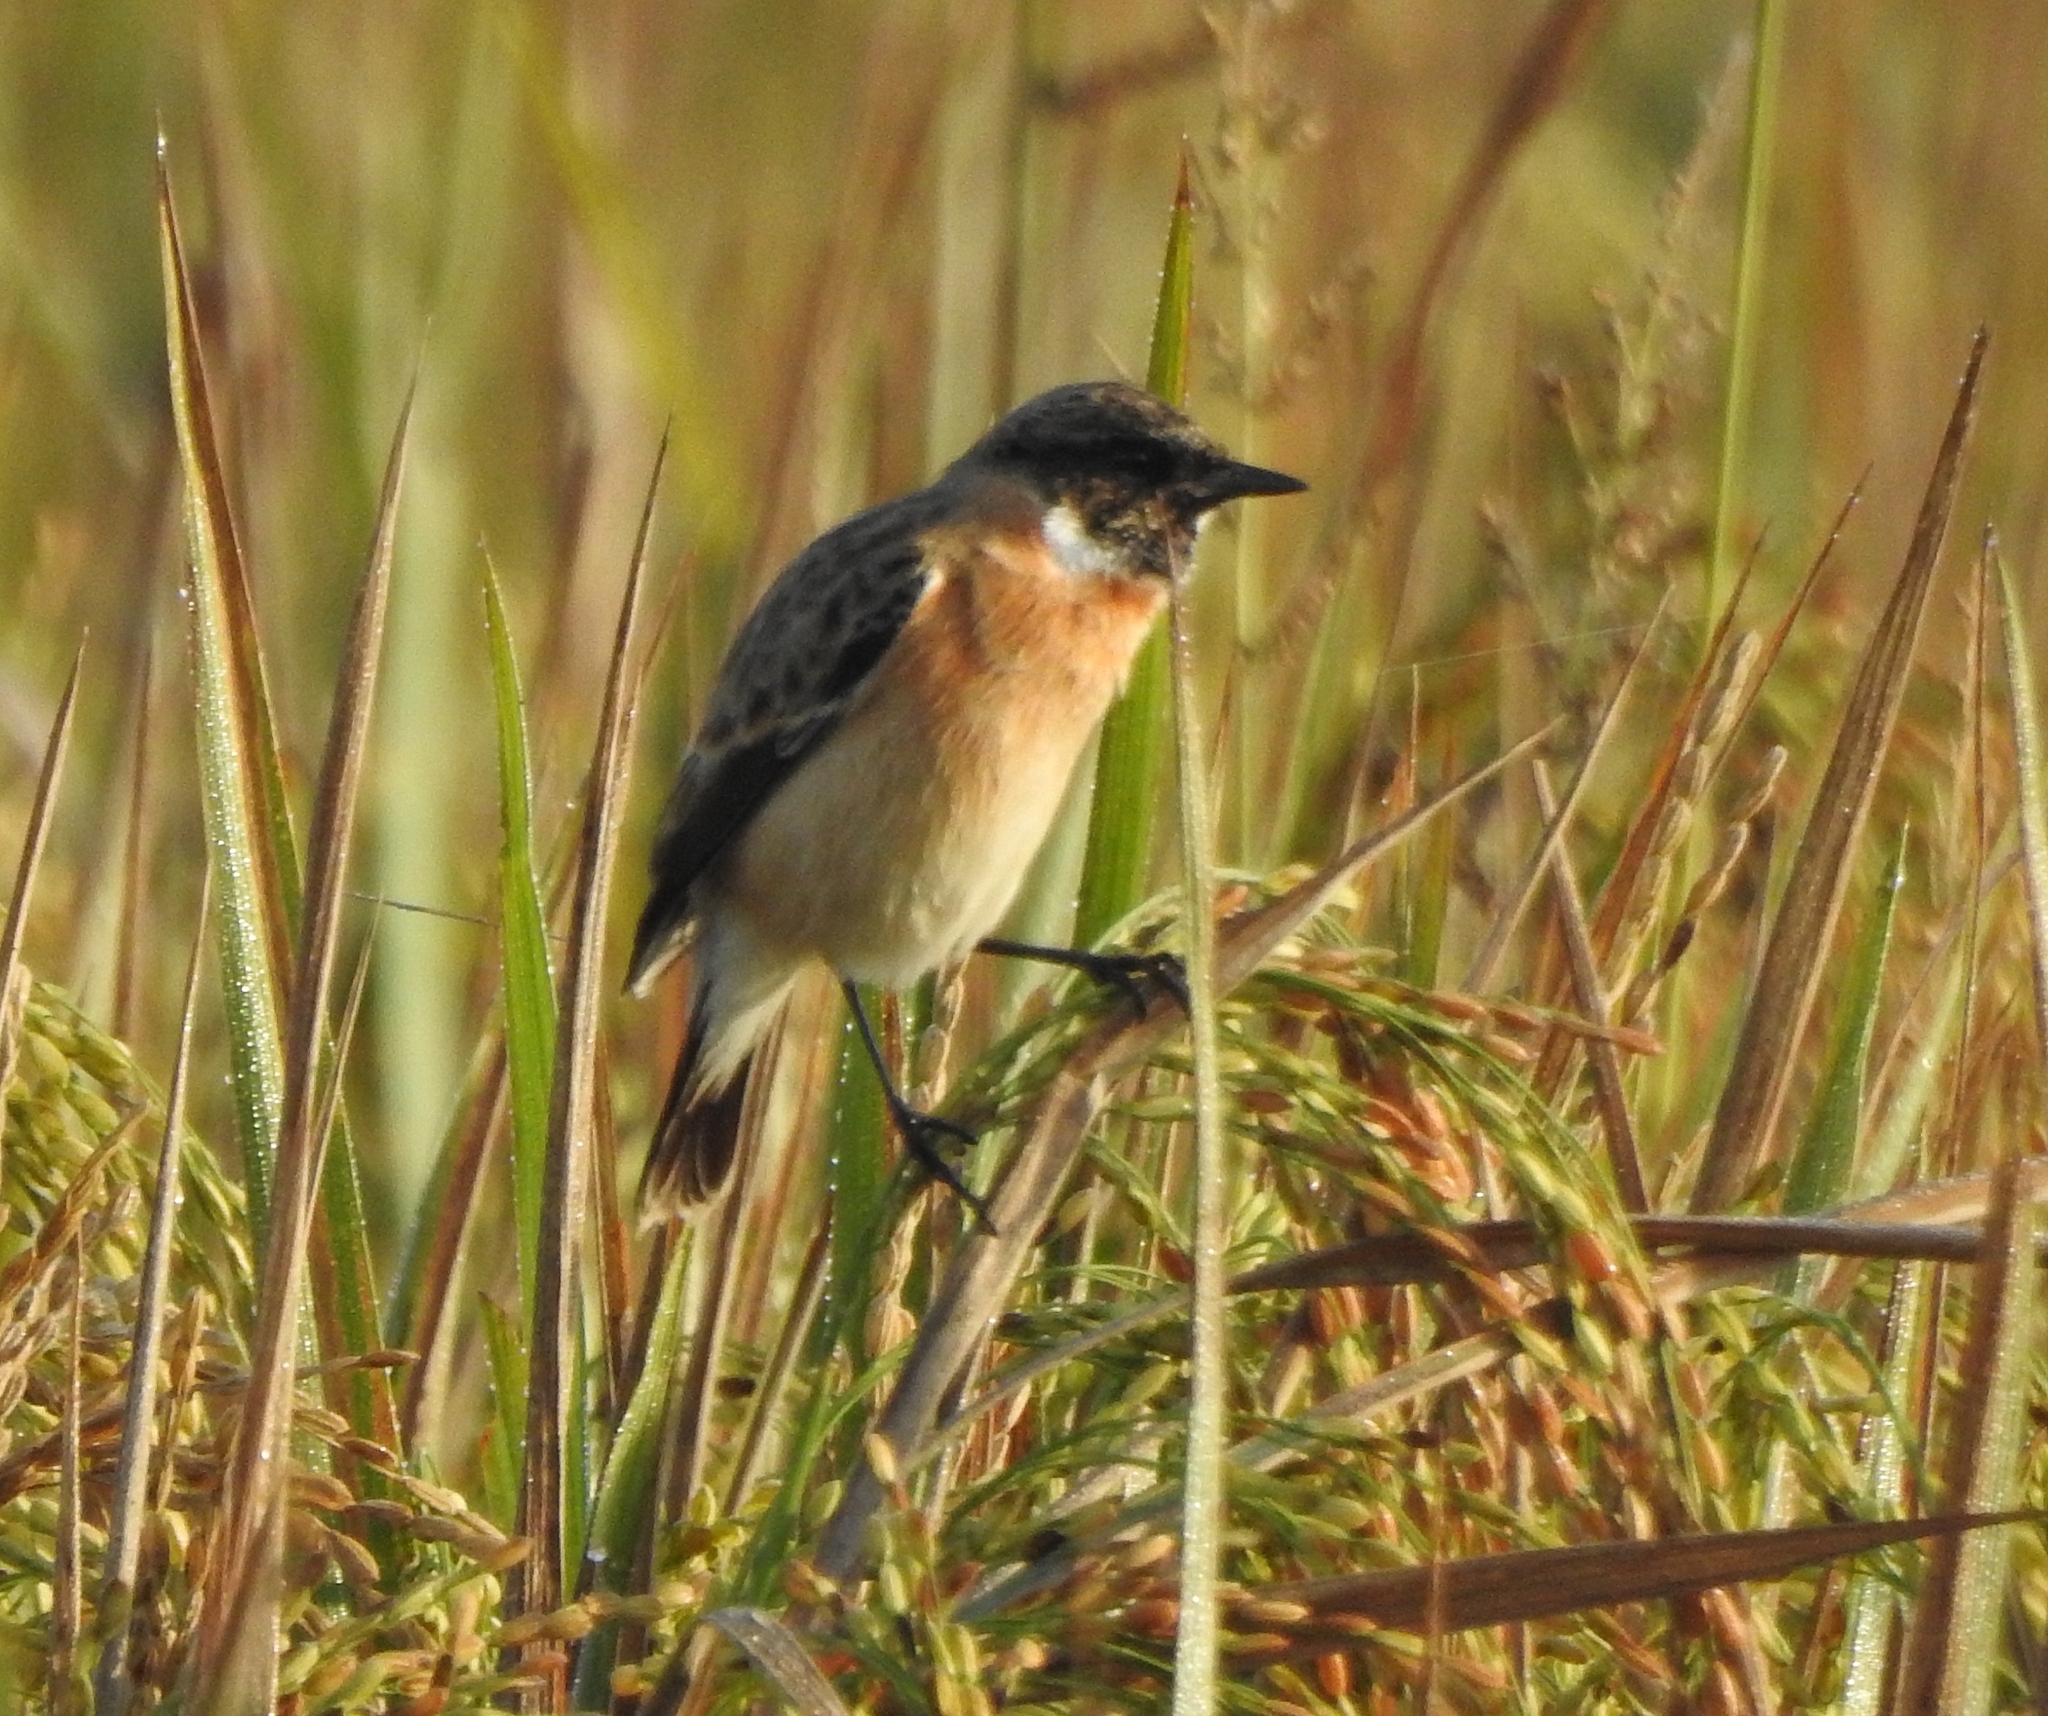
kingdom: Animalia
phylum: Chordata
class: Aves
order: Passeriformes
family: Muscicapidae
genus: Saxicola
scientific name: Saxicola maurus
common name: Siberian stonechat
